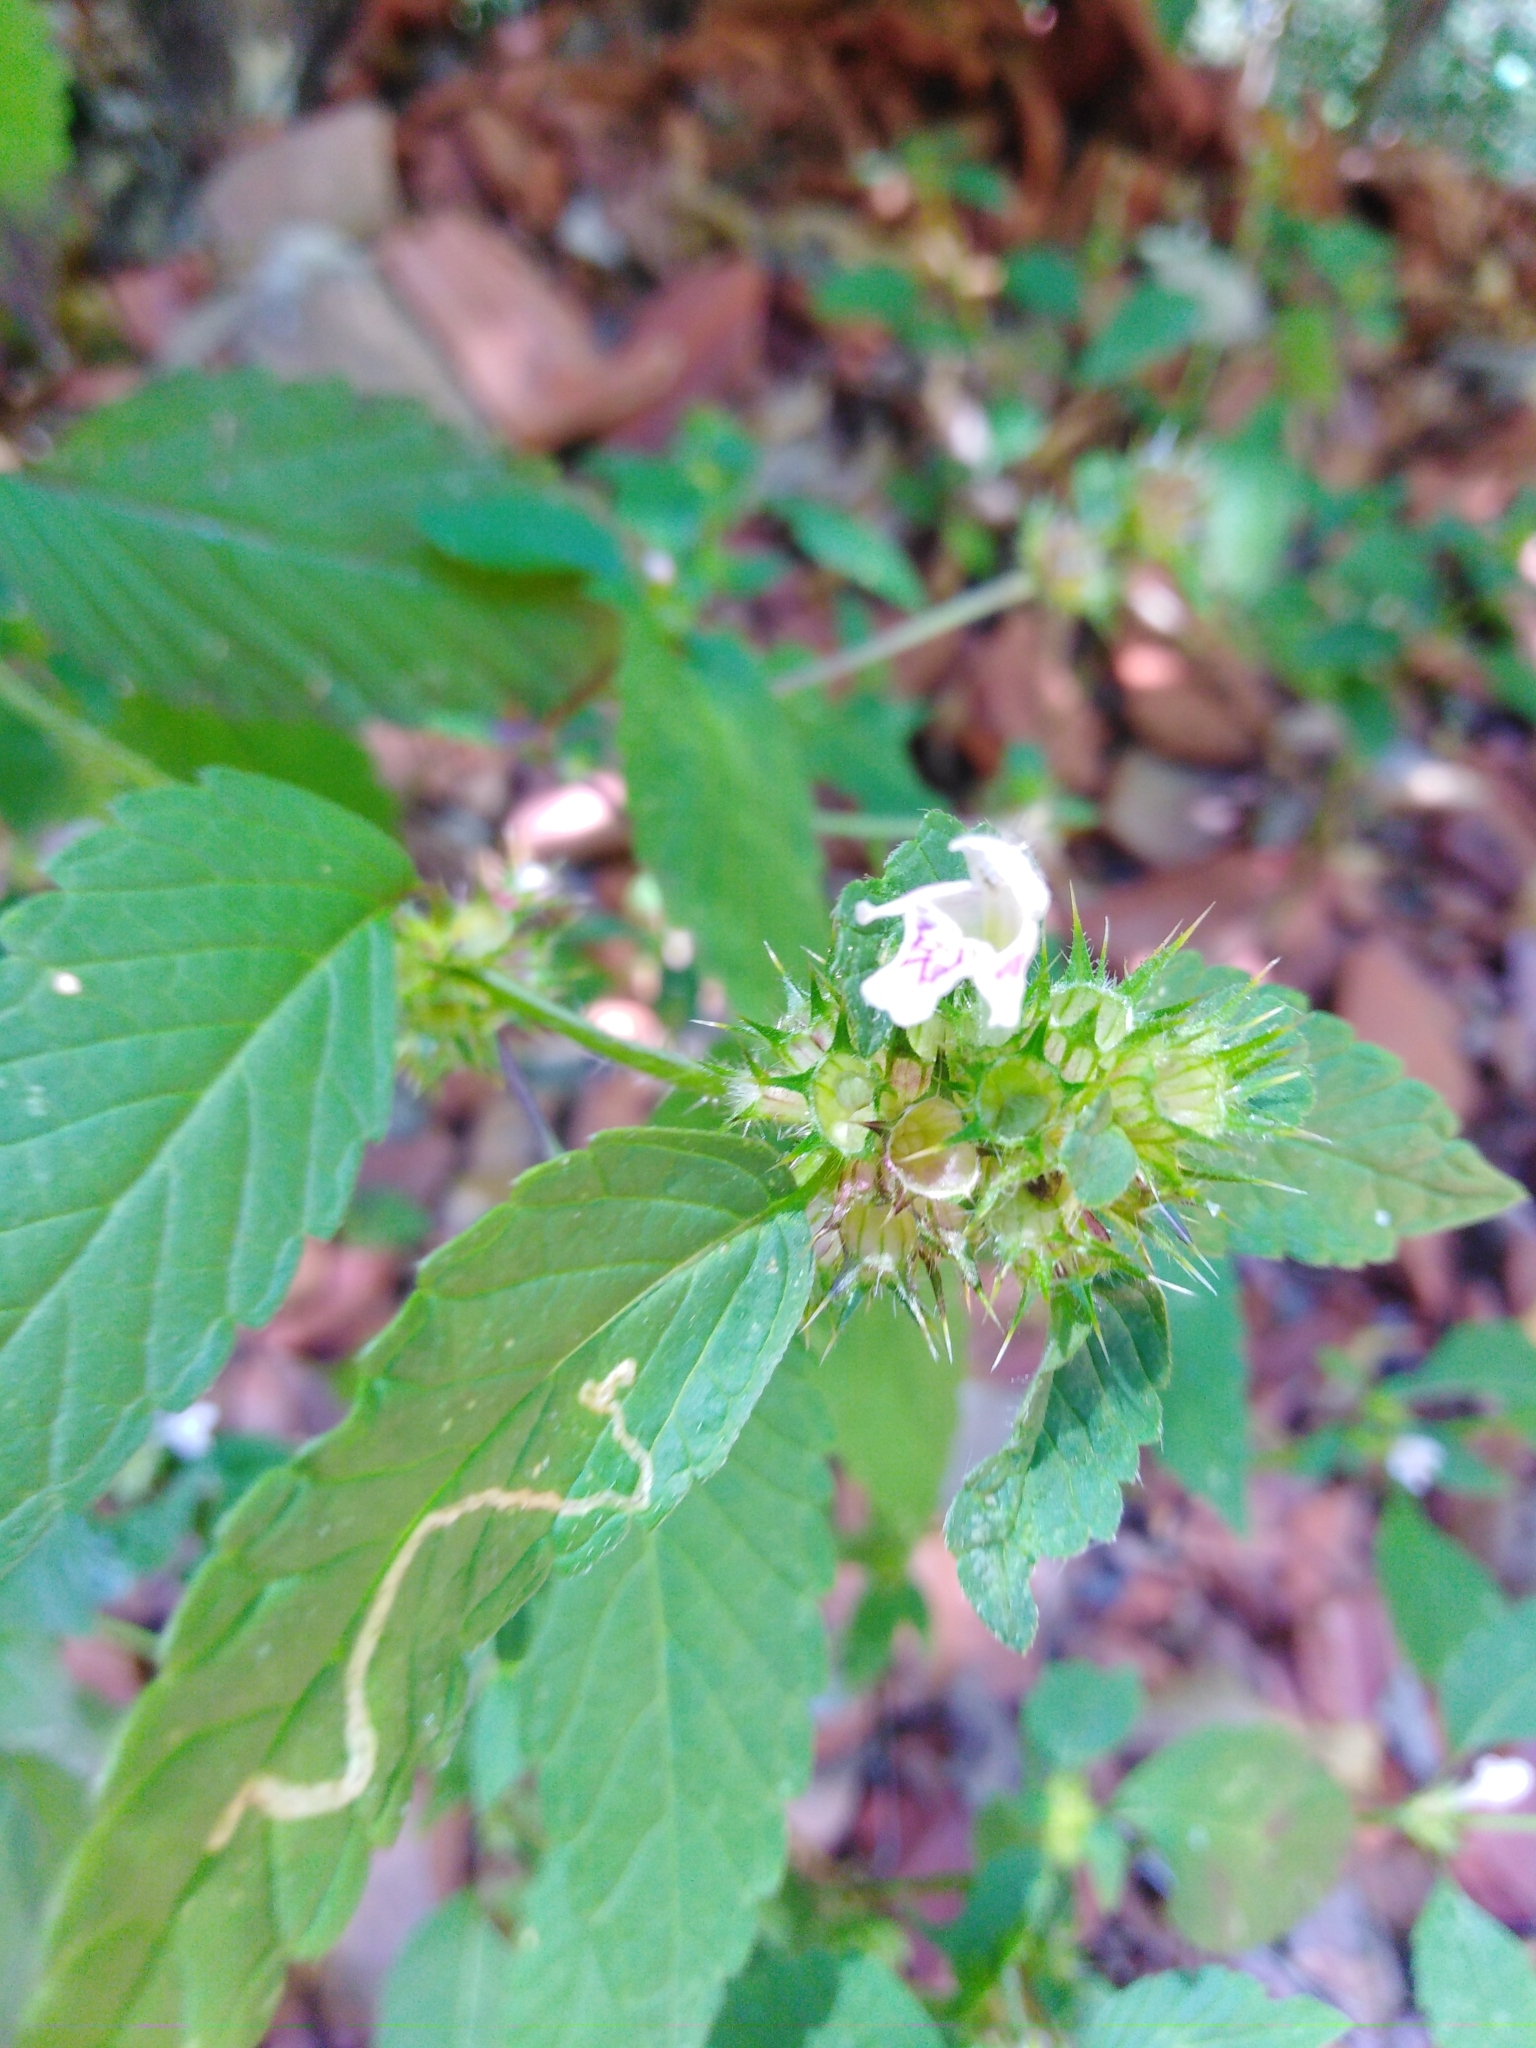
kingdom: Plantae
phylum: Tracheophyta
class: Magnoliopsida
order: Lamiales
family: Lamiaceae
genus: Galeopsis
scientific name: Galeopsis tetrahit
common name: Common hemp-nettle
